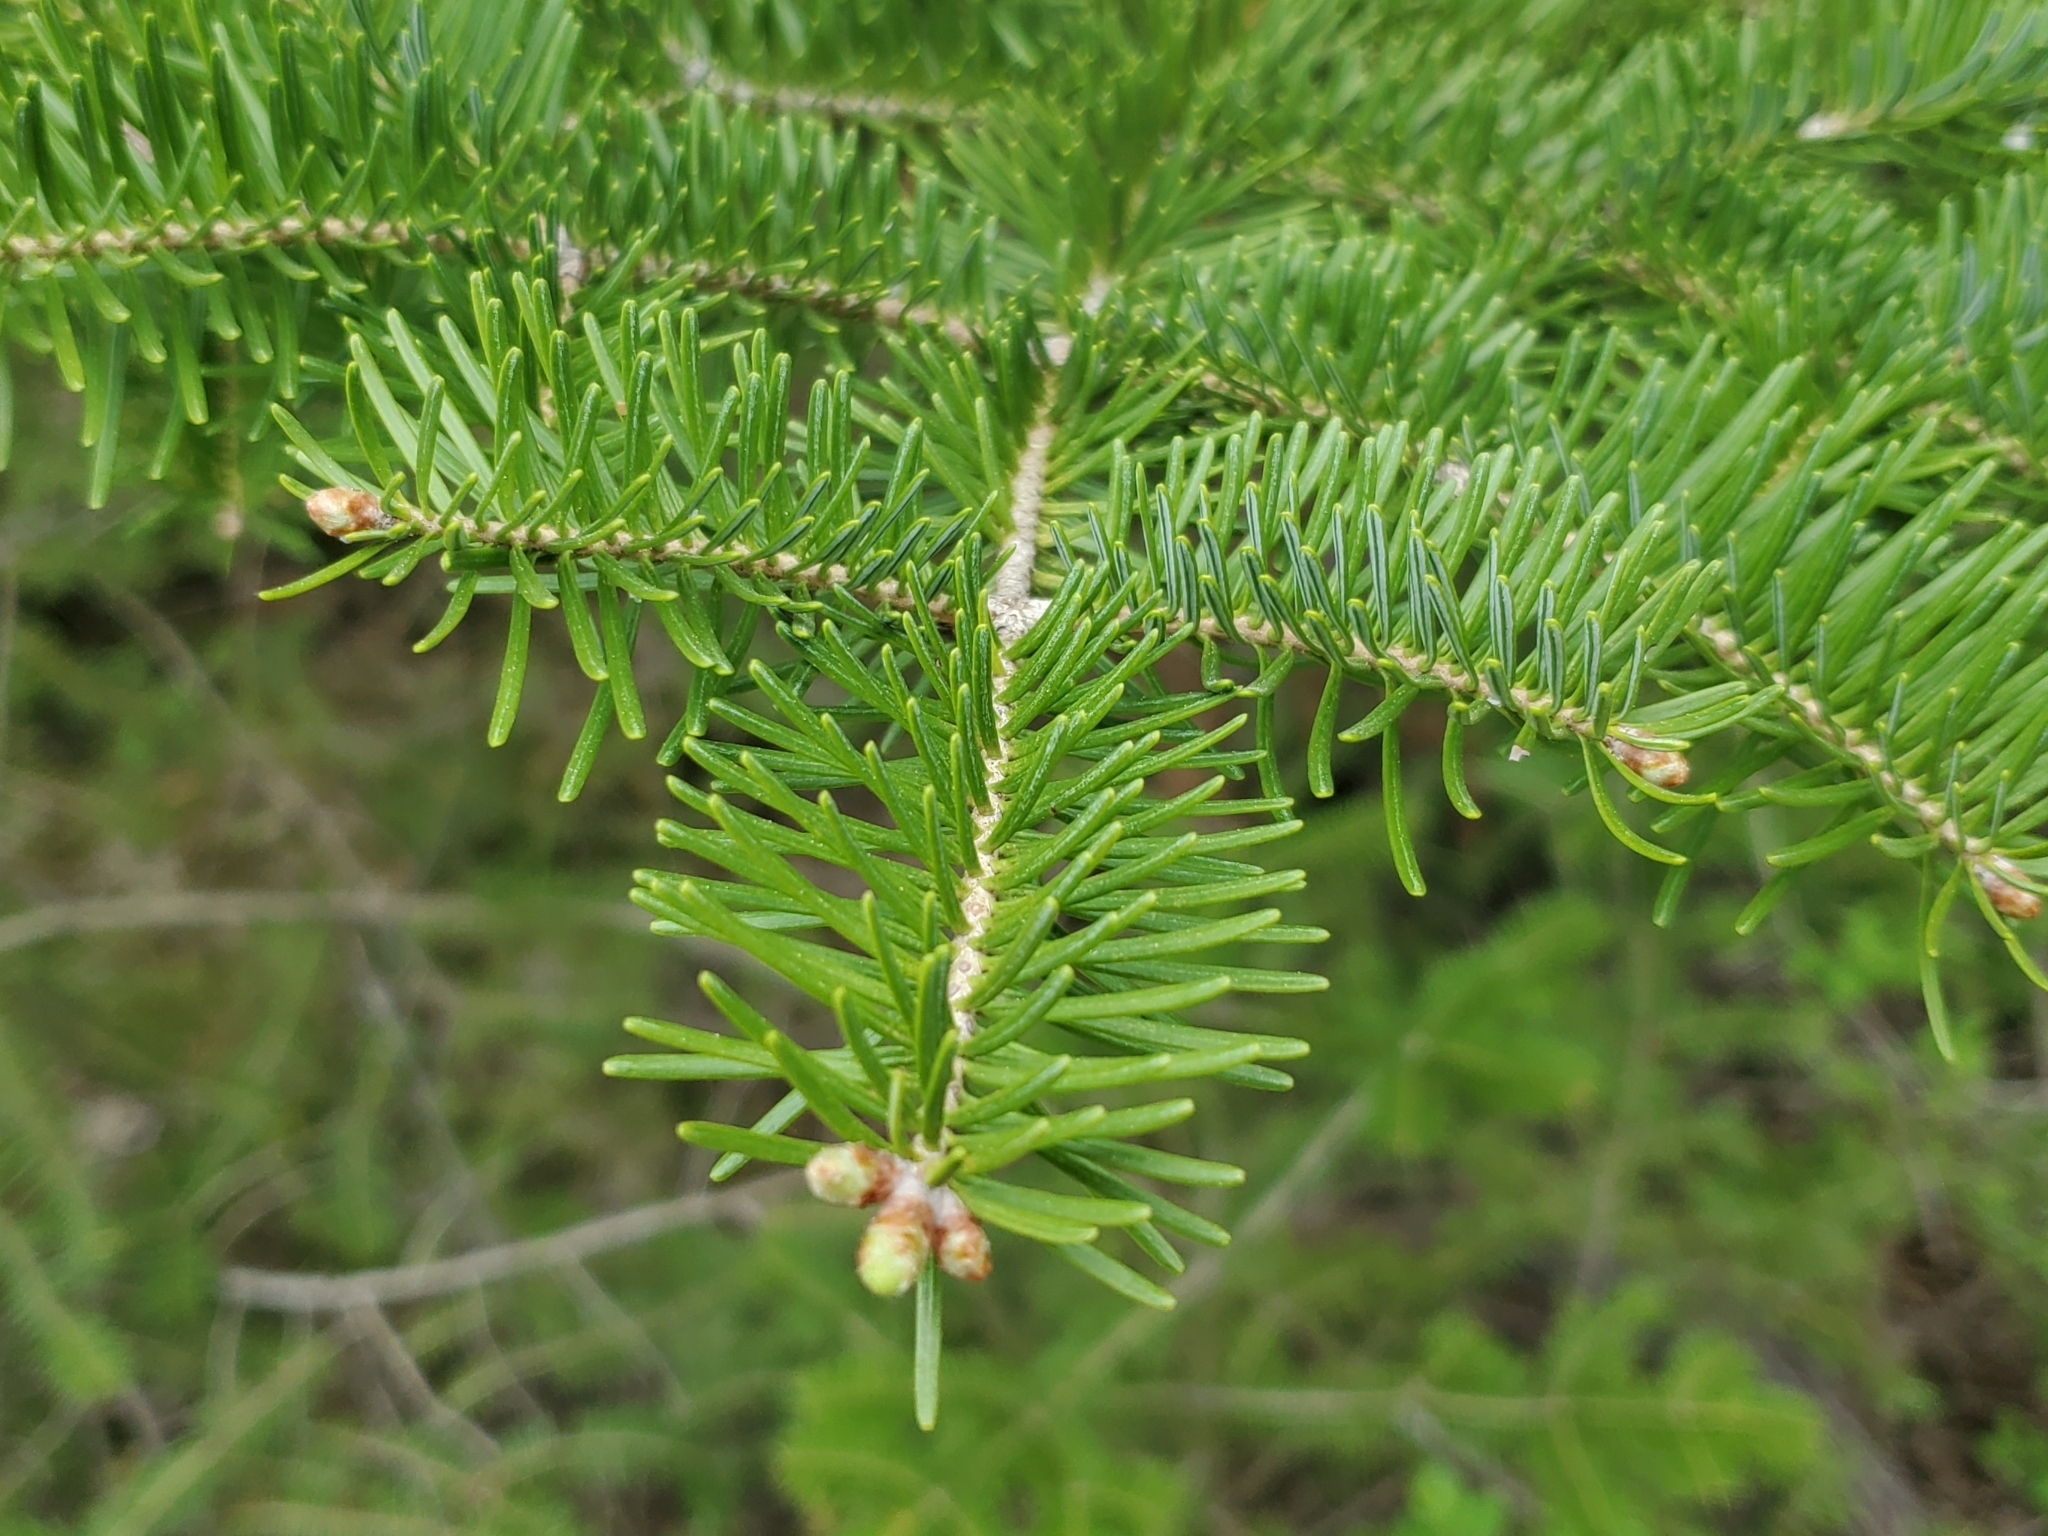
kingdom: Plantae
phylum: Tracheophyta
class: Pinopsida
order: Pinales
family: Pinaceae
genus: Abies
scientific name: Abies balsamea
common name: Balsam fir
